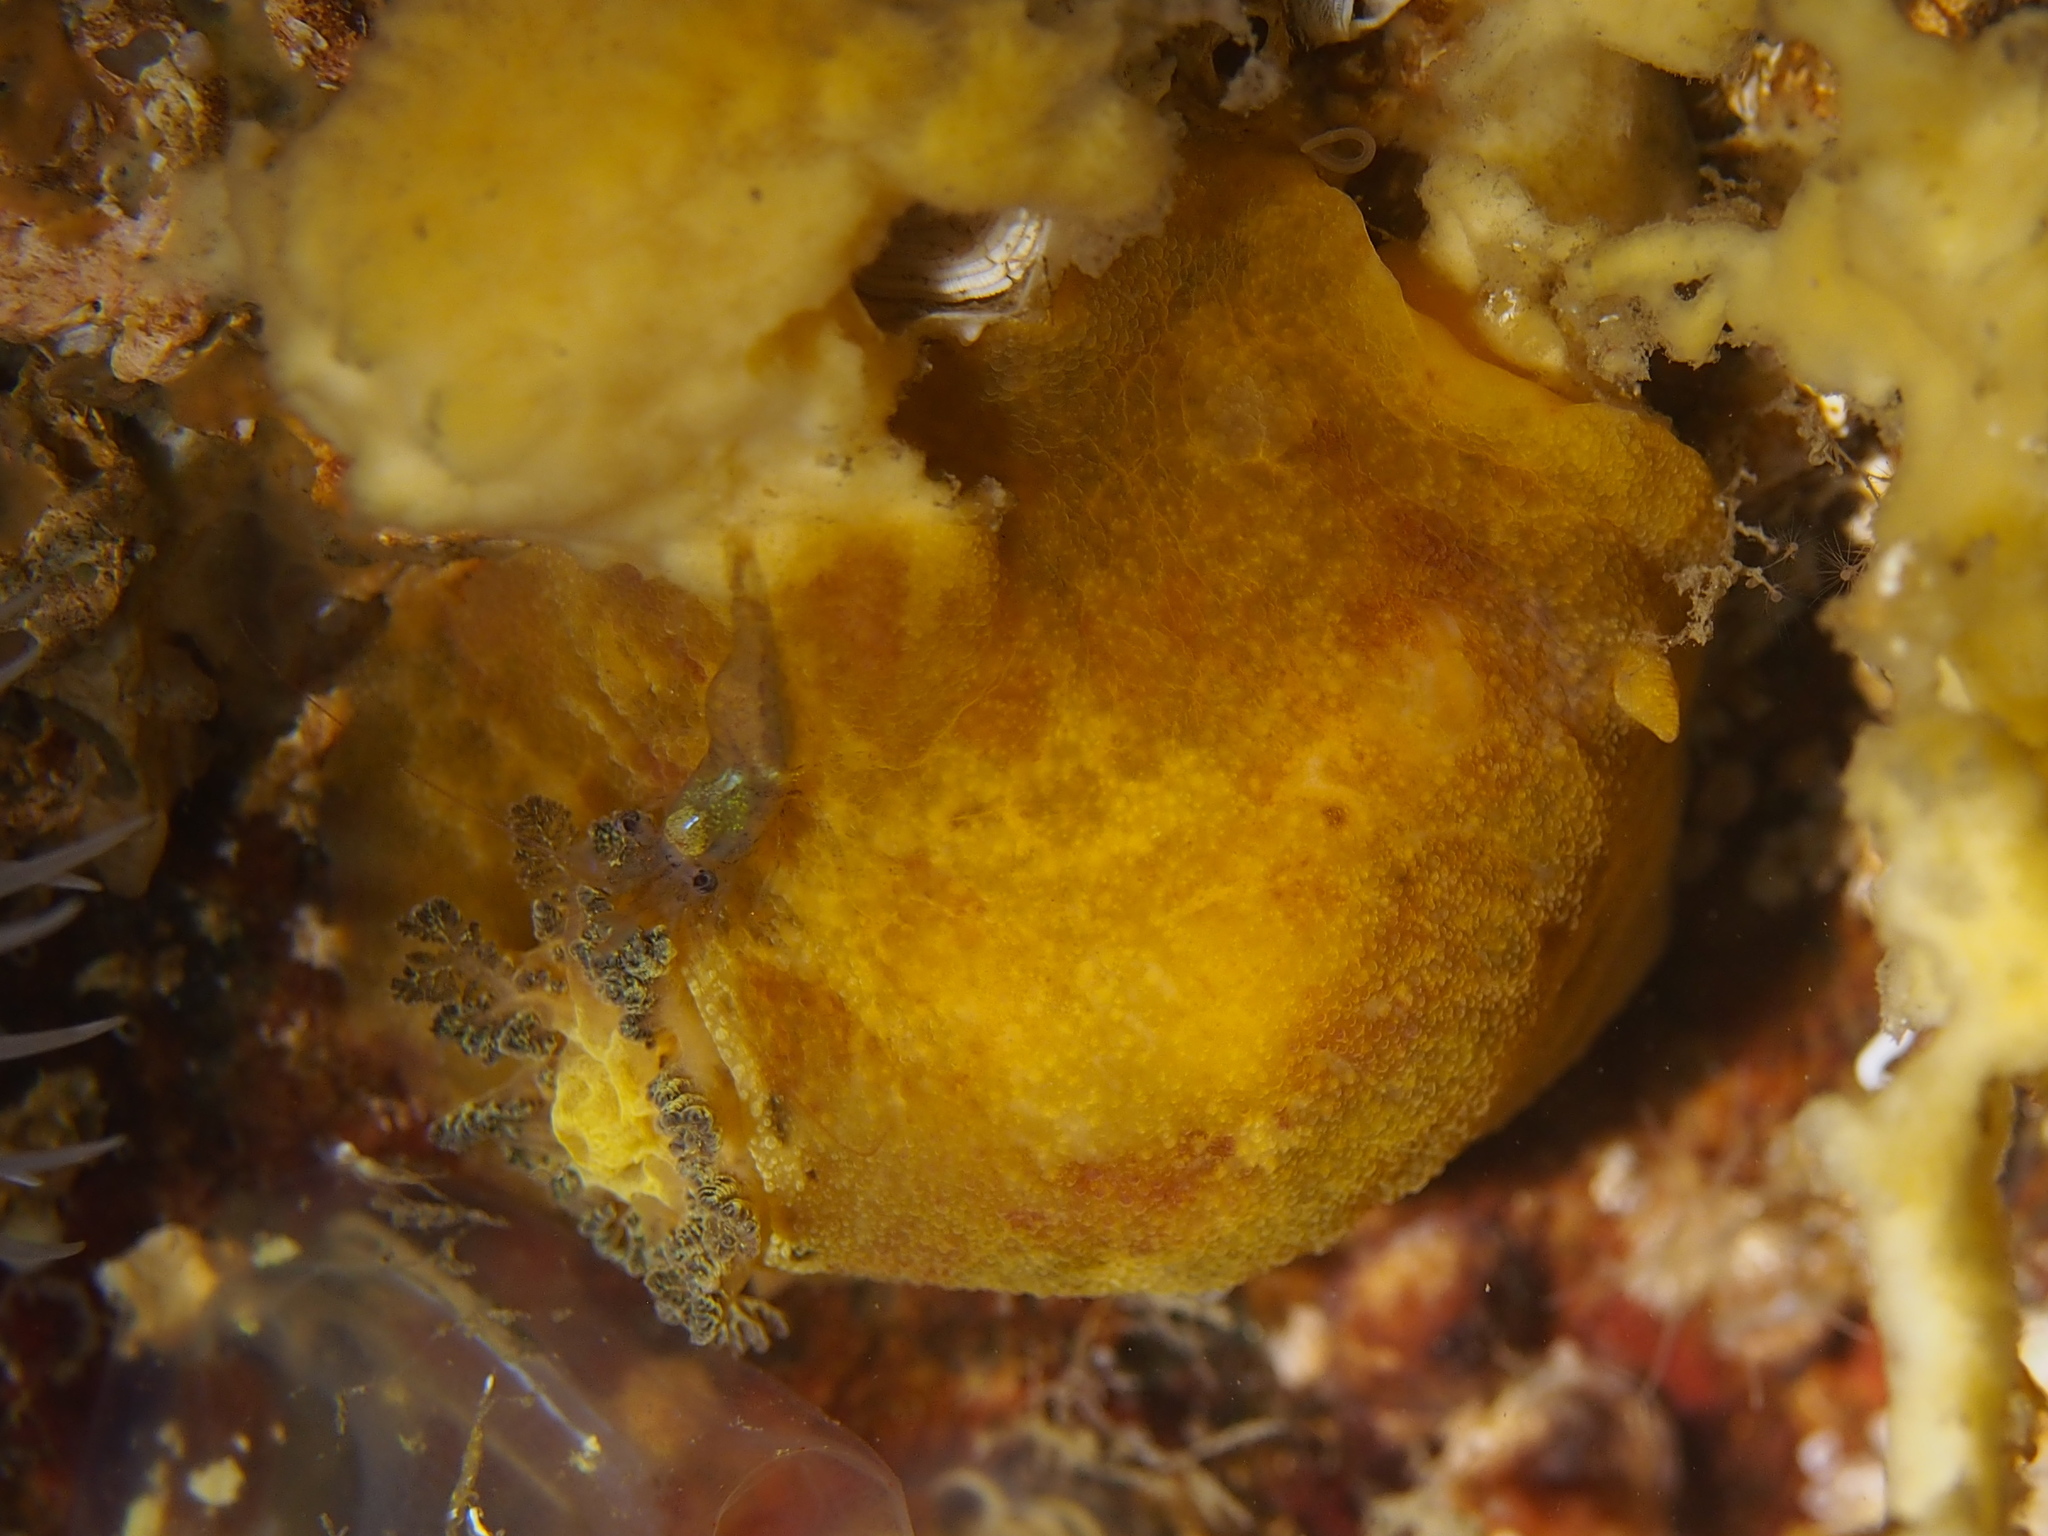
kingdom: Animalia
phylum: Mollusca
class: Gastropoda
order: Nudibranchia
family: Dorididae
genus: Doris
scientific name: Doris pseudoargus
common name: Sea lemon
